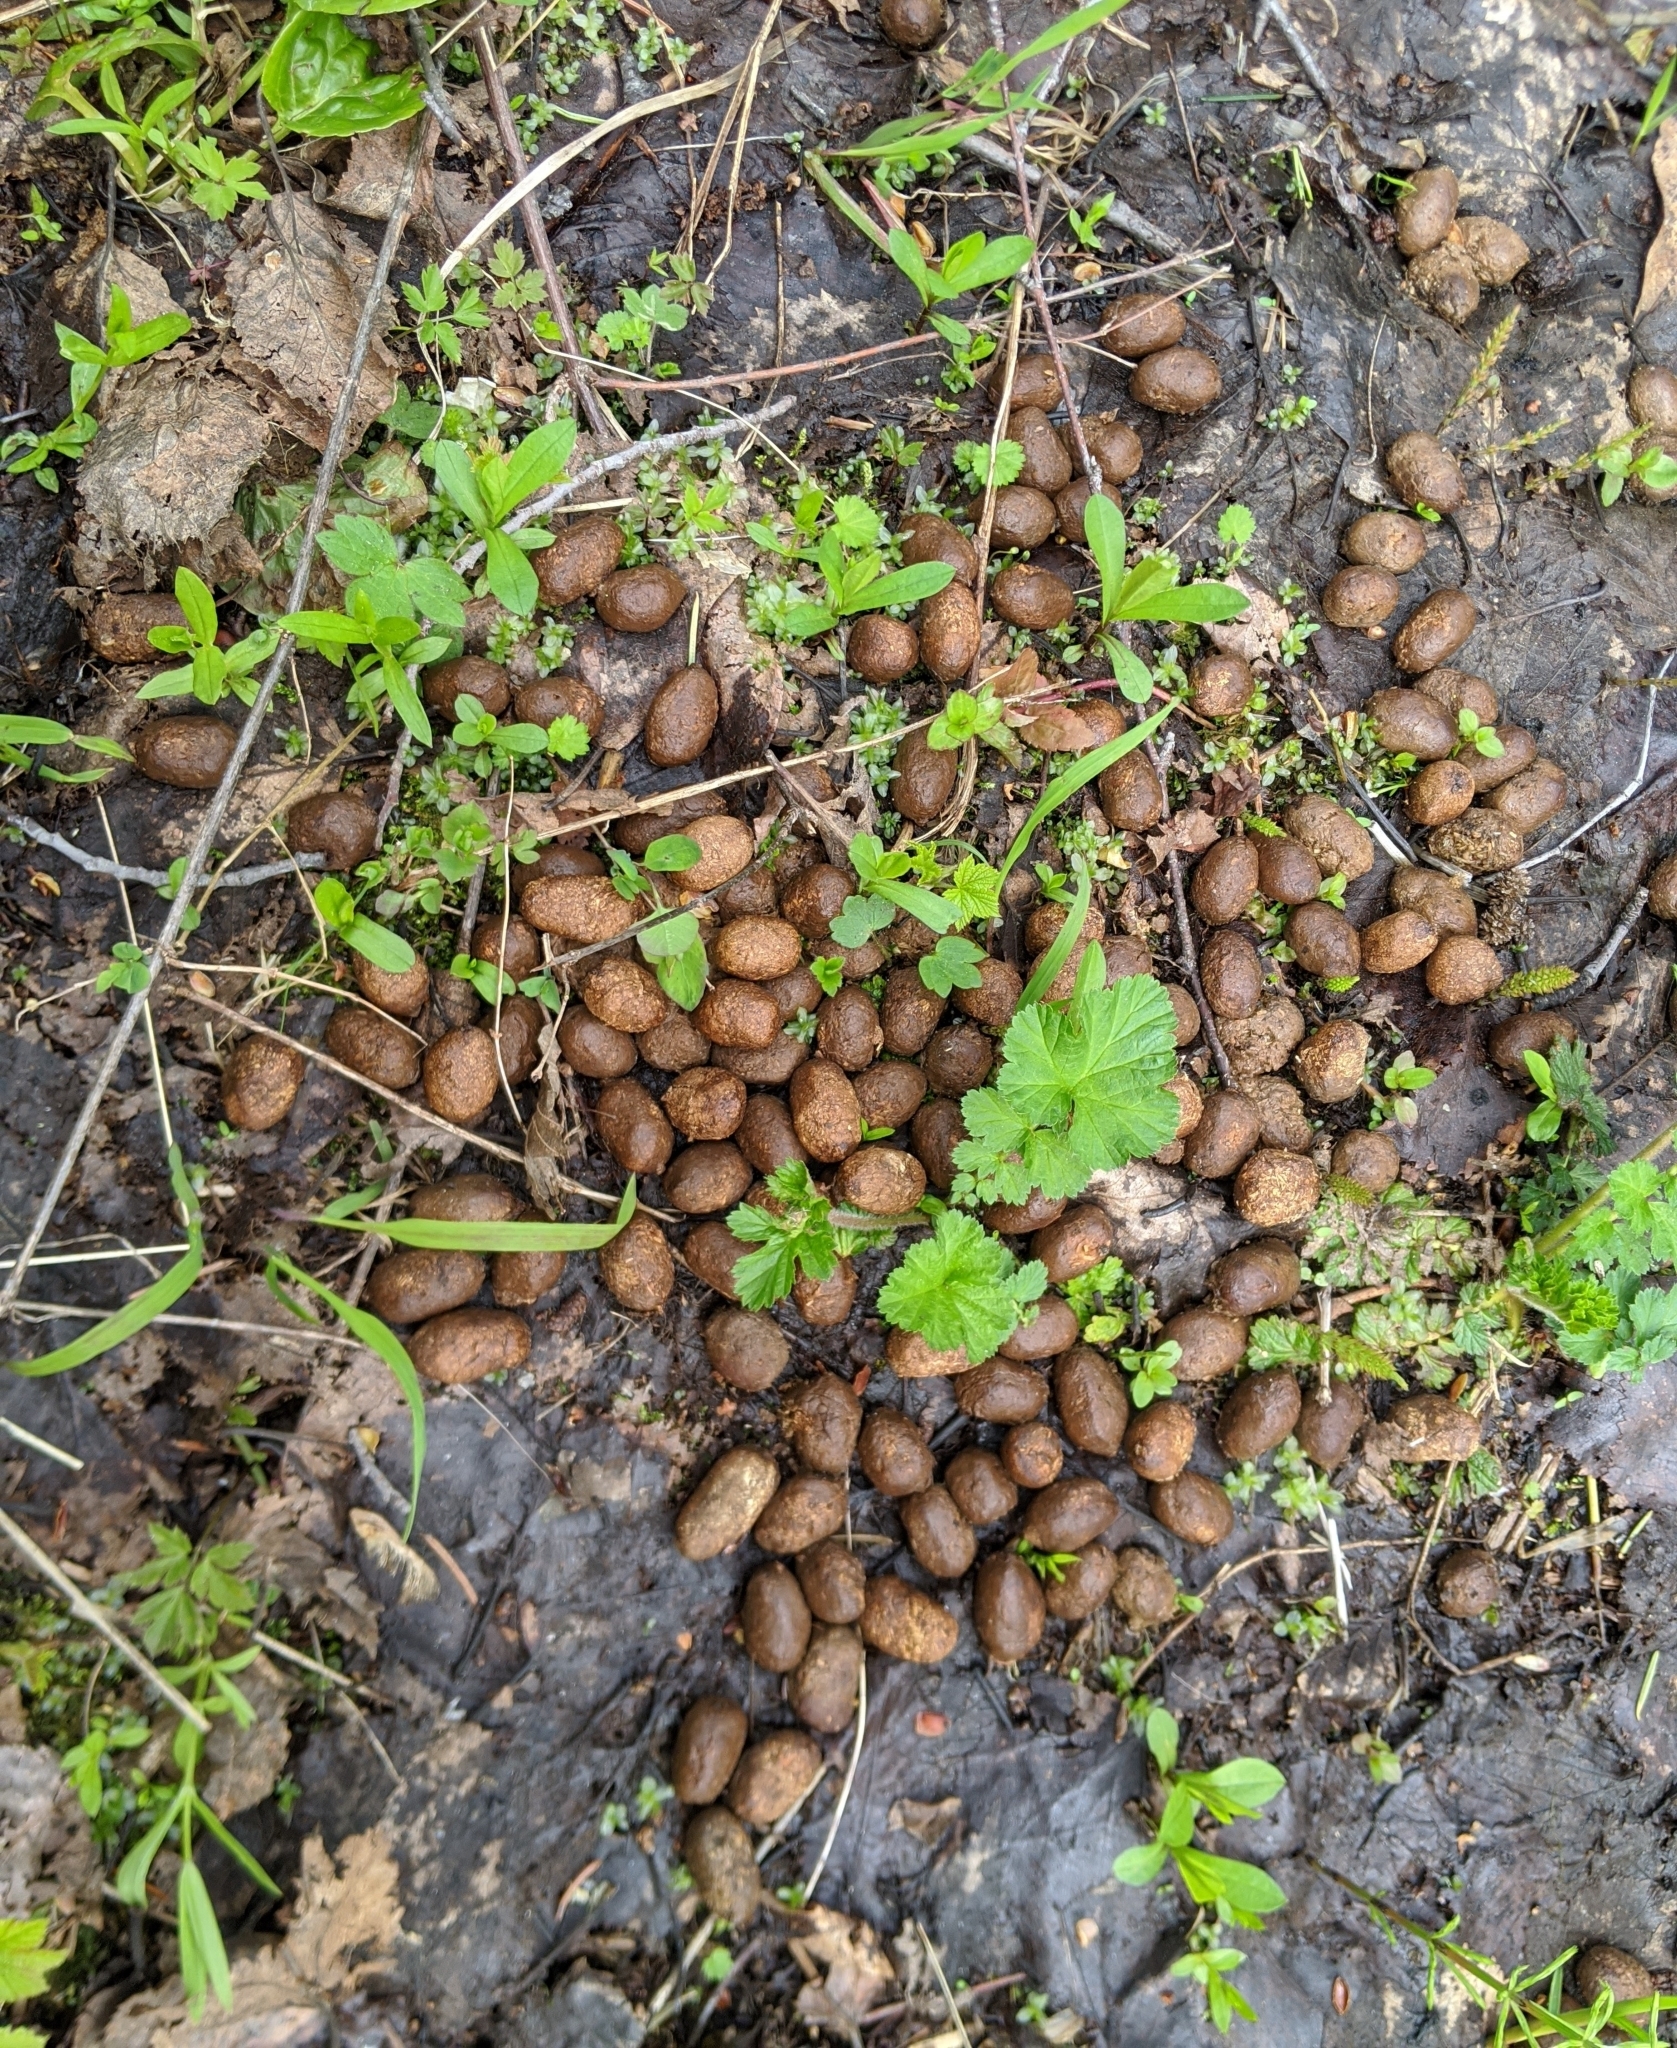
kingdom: Animalia
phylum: Chordata
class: Mammalia
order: Artiodactyla
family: Cervidae
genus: Alces
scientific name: Alces alces
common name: Moose
